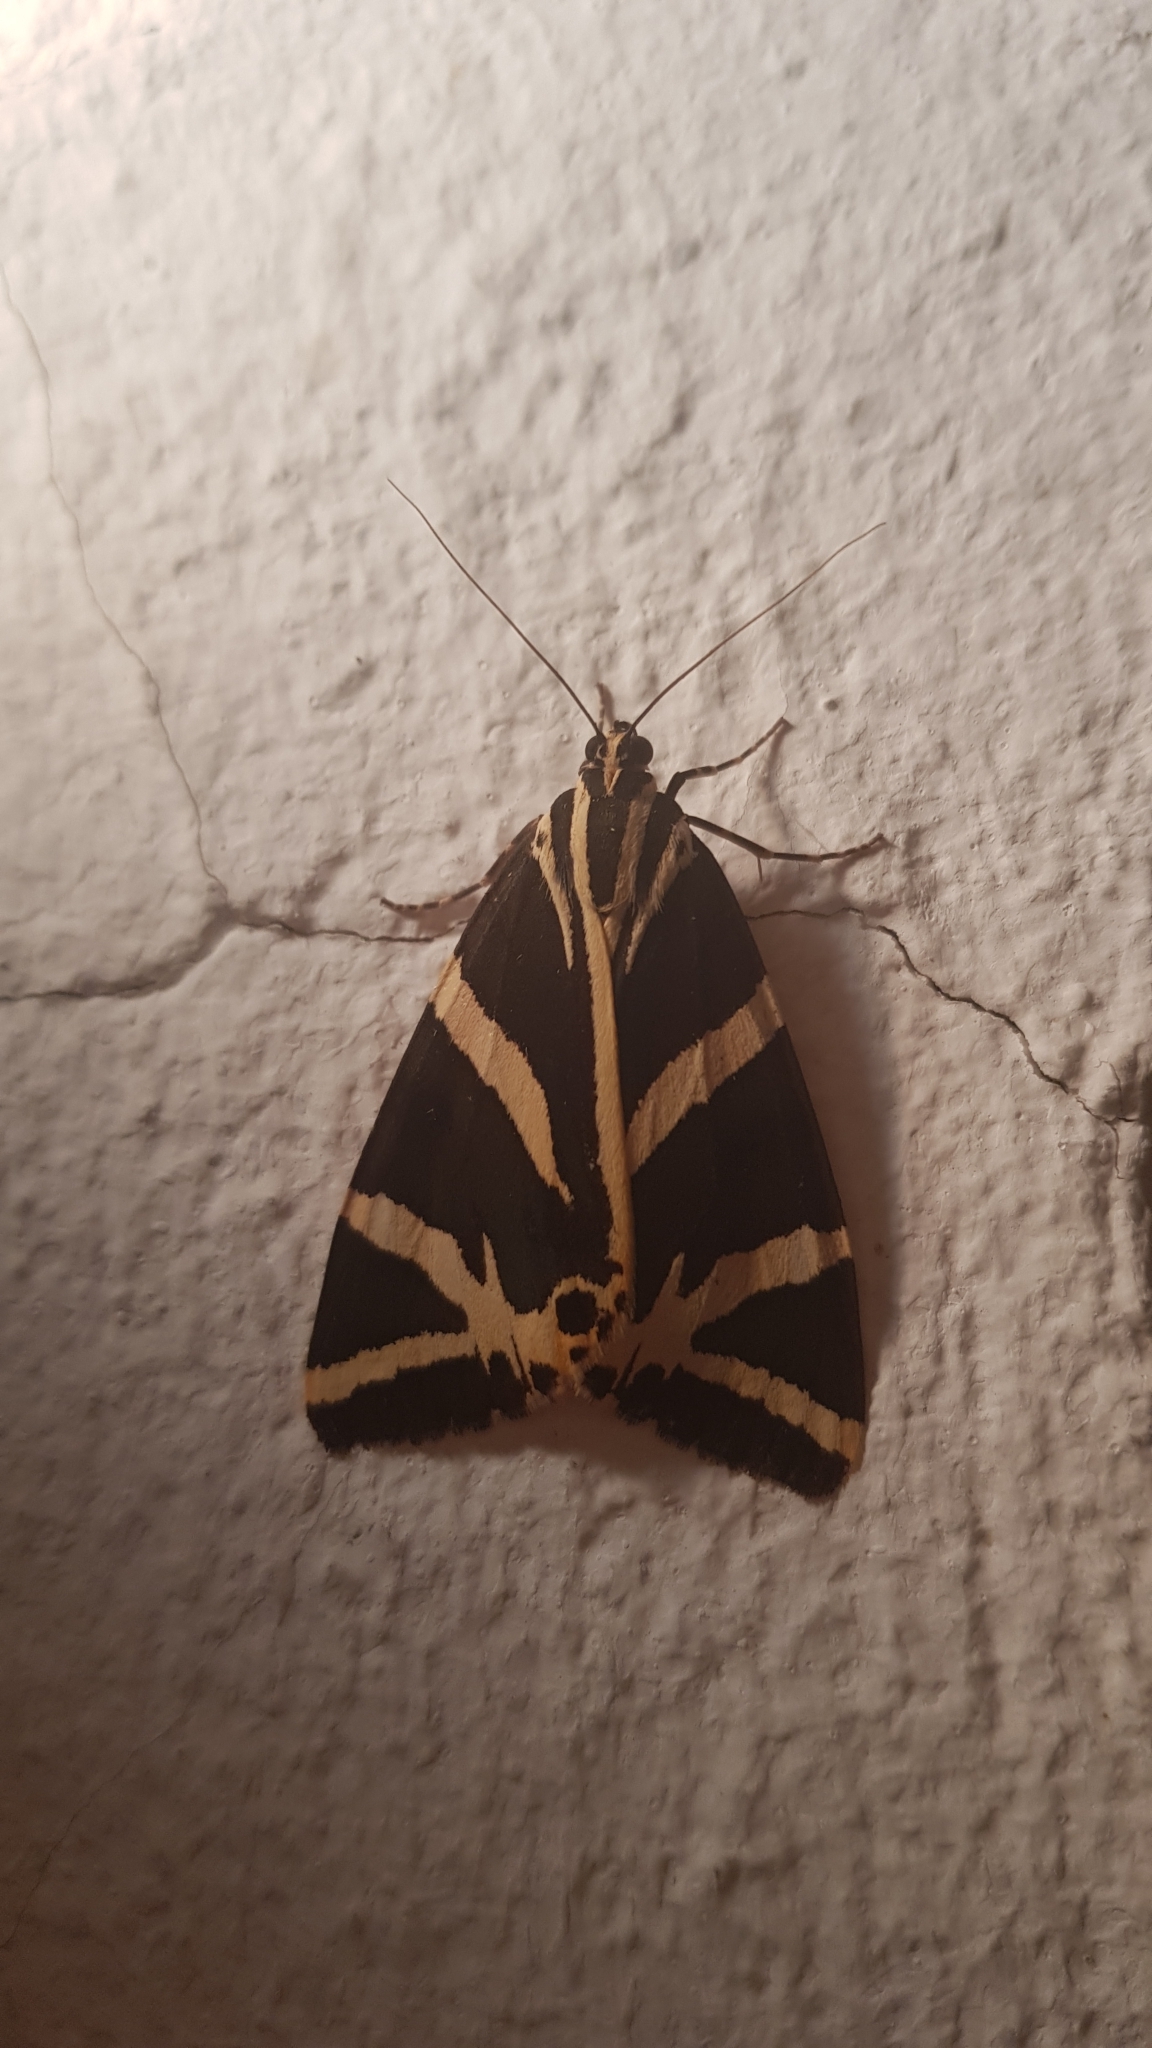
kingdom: Animalia
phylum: Arthropoda
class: Insecta
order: Lepidoptera
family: Erebidae
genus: Euplagia
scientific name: Euplagia quadripunctaria
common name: Jersey tiger
